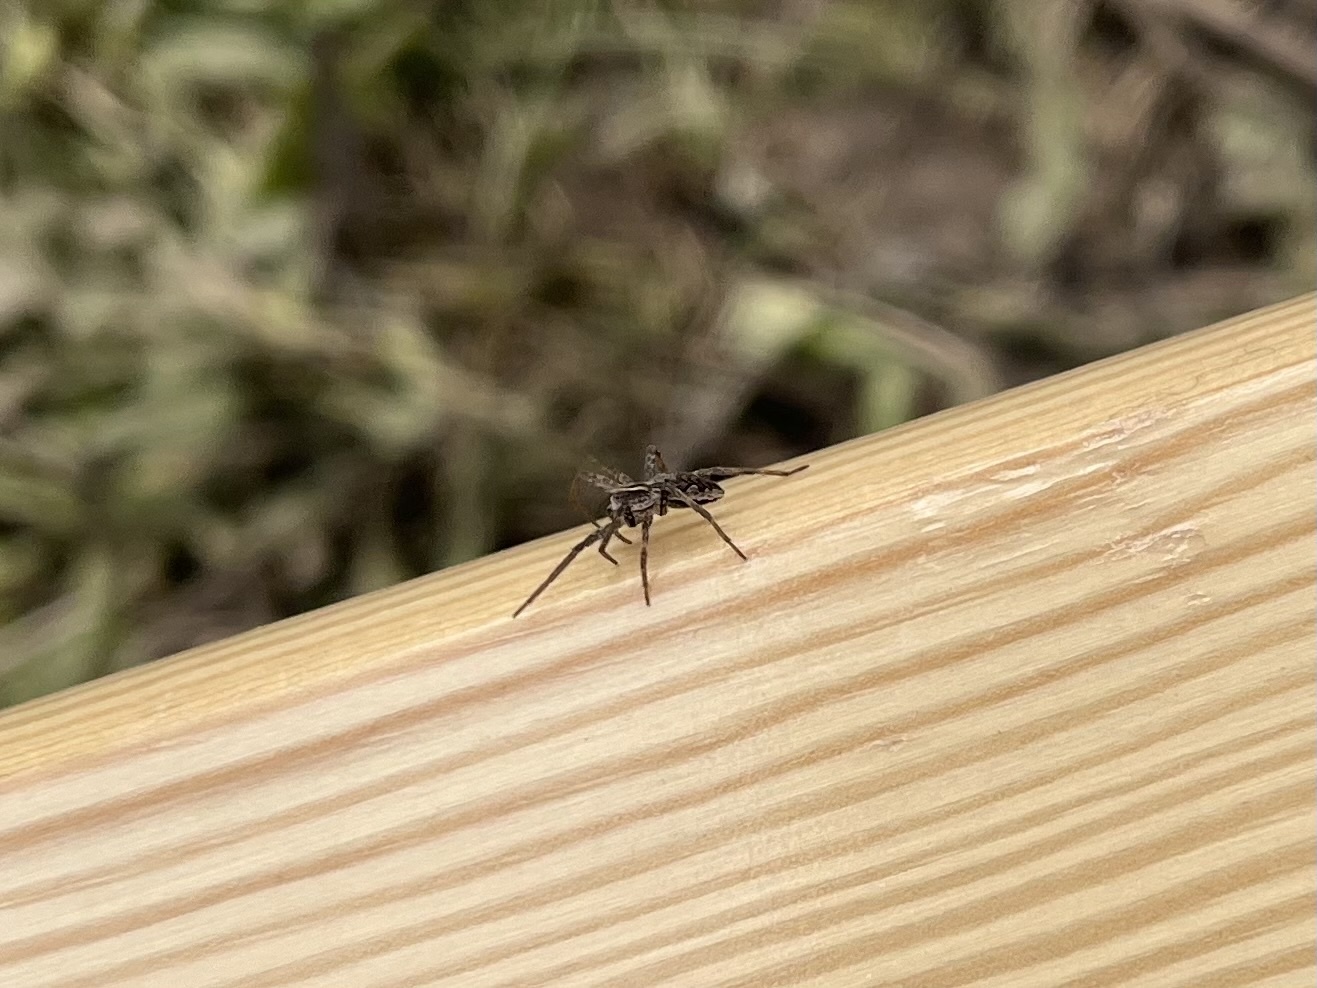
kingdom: Animalia
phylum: Arthropoda
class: Arachnida
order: Araneae
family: Pisauridae
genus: Pisaura
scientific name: Pisaura mirabilis
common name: Tent spider
